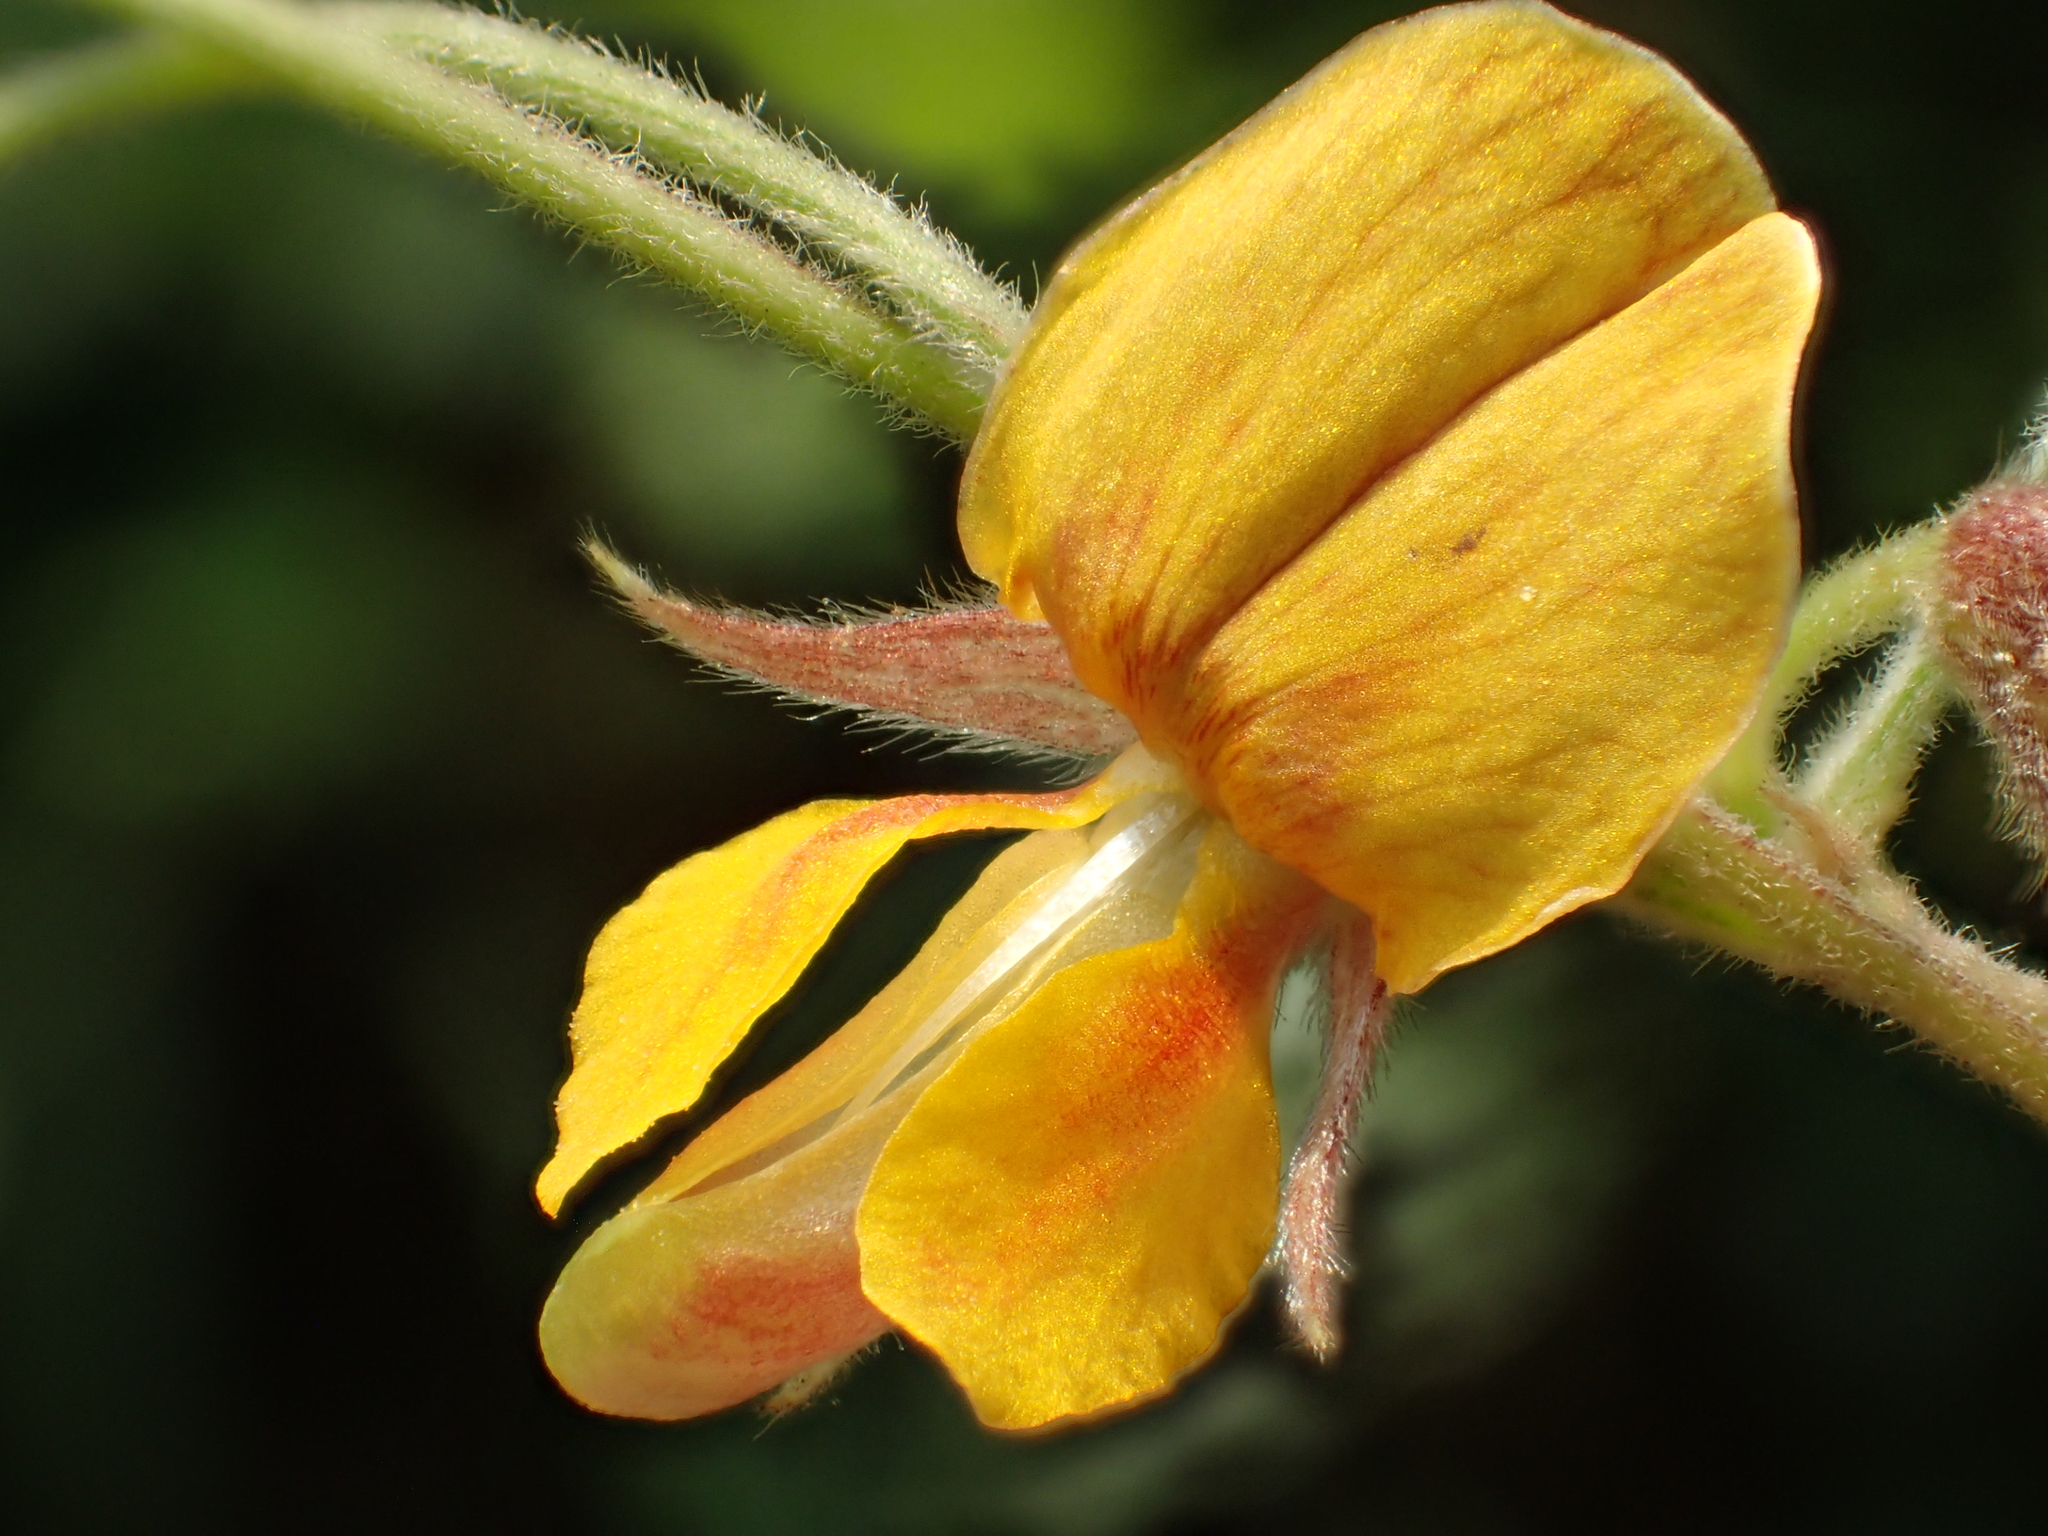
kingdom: Plantae
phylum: Tracheophyta
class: Magnoliopsida
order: Fabales
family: Fabaceae
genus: Cajanus
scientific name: Cajanus scarabaeoides
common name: Showy pigeonpea
